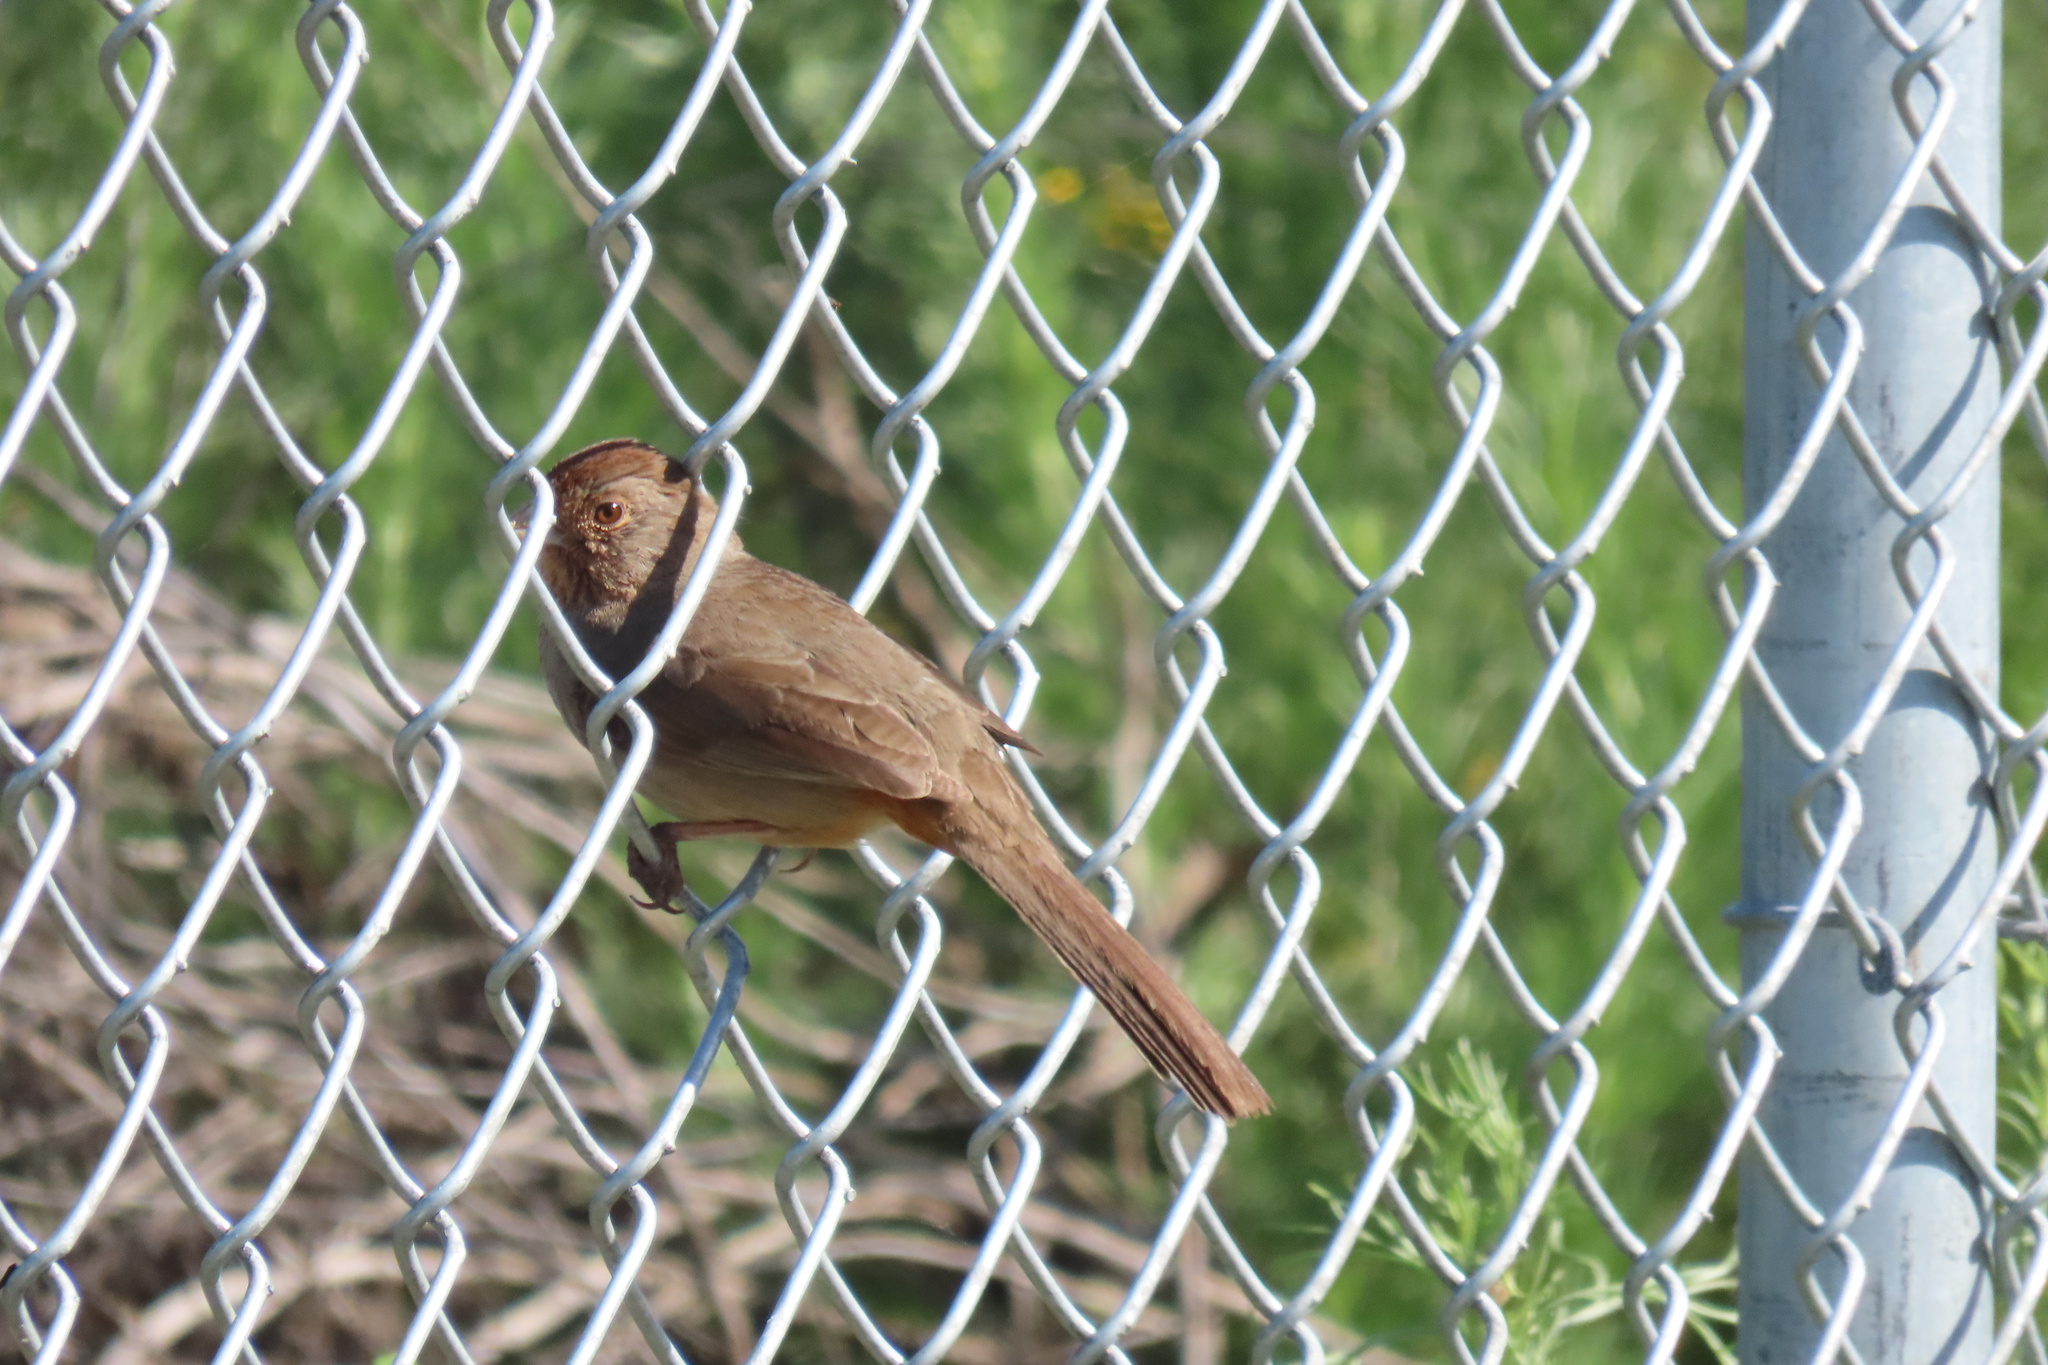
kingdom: Animalia
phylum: Chordata
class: Aves
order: Passeriformes
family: Passerellidae
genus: Melozone
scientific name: Melozone crissalis
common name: California towhee
